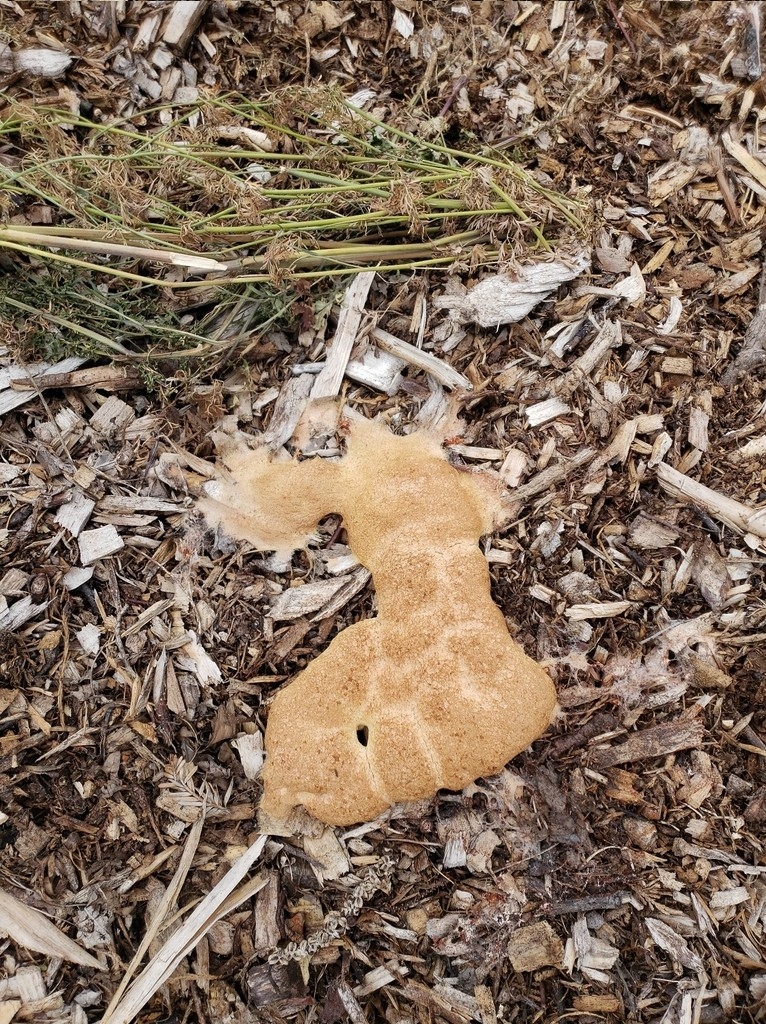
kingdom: Protozoa
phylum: Mycetozoa
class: Myxomycetes
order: Physarales
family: Physaraceae
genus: Fuligo
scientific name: Fuligo septica
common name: Dog vomit slime mold
